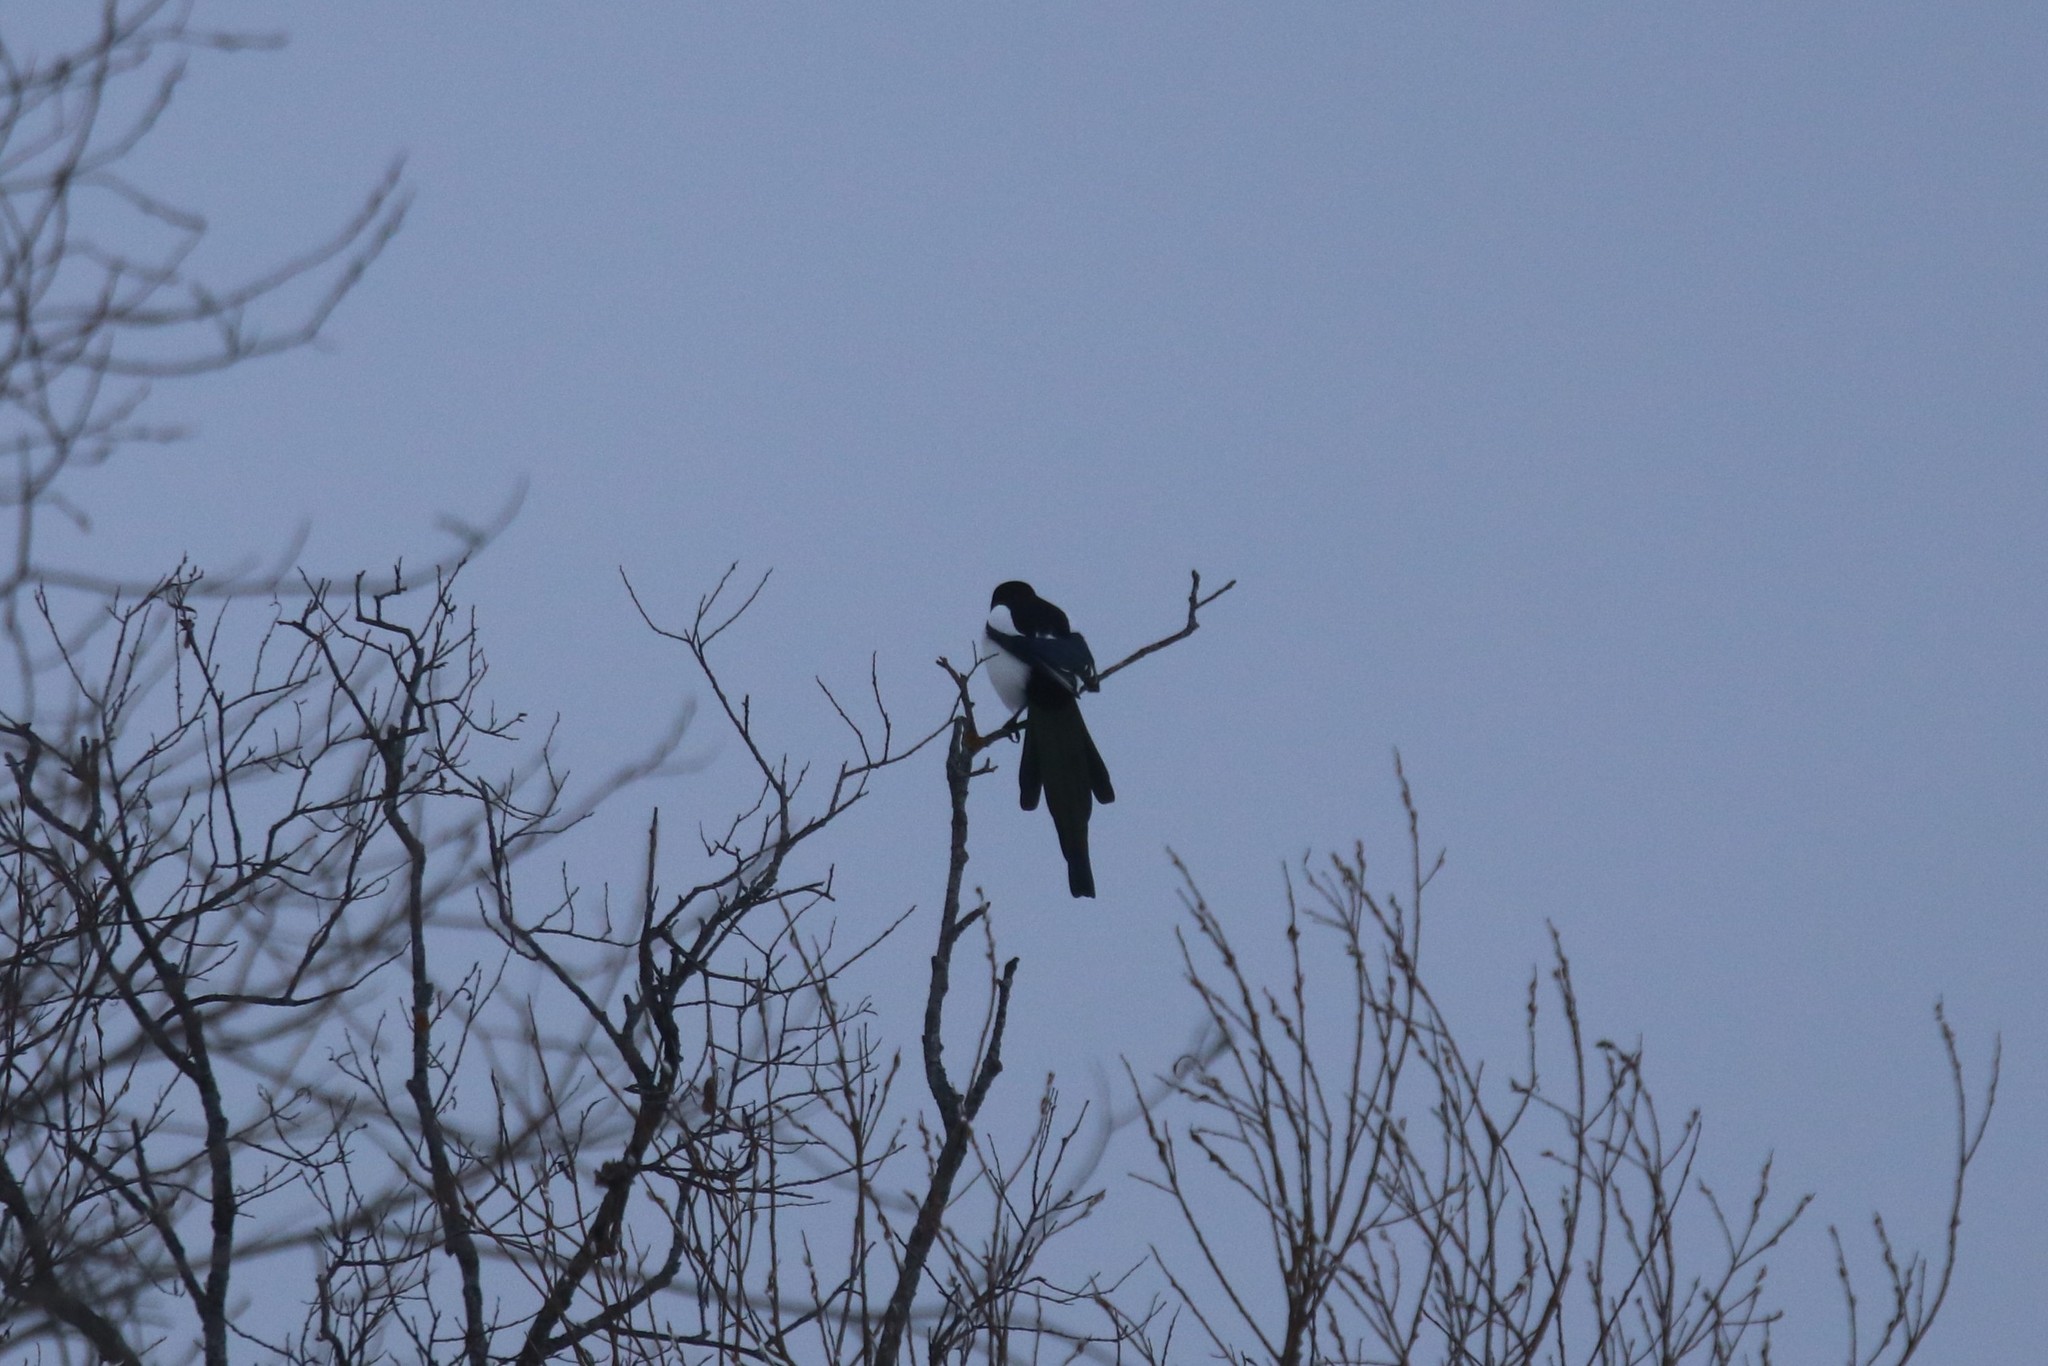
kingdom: Animalia
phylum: Chordata
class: Aves
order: Passeriformes
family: Corvidae
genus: Pica
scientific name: Pica pica
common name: Eurasian magpie
